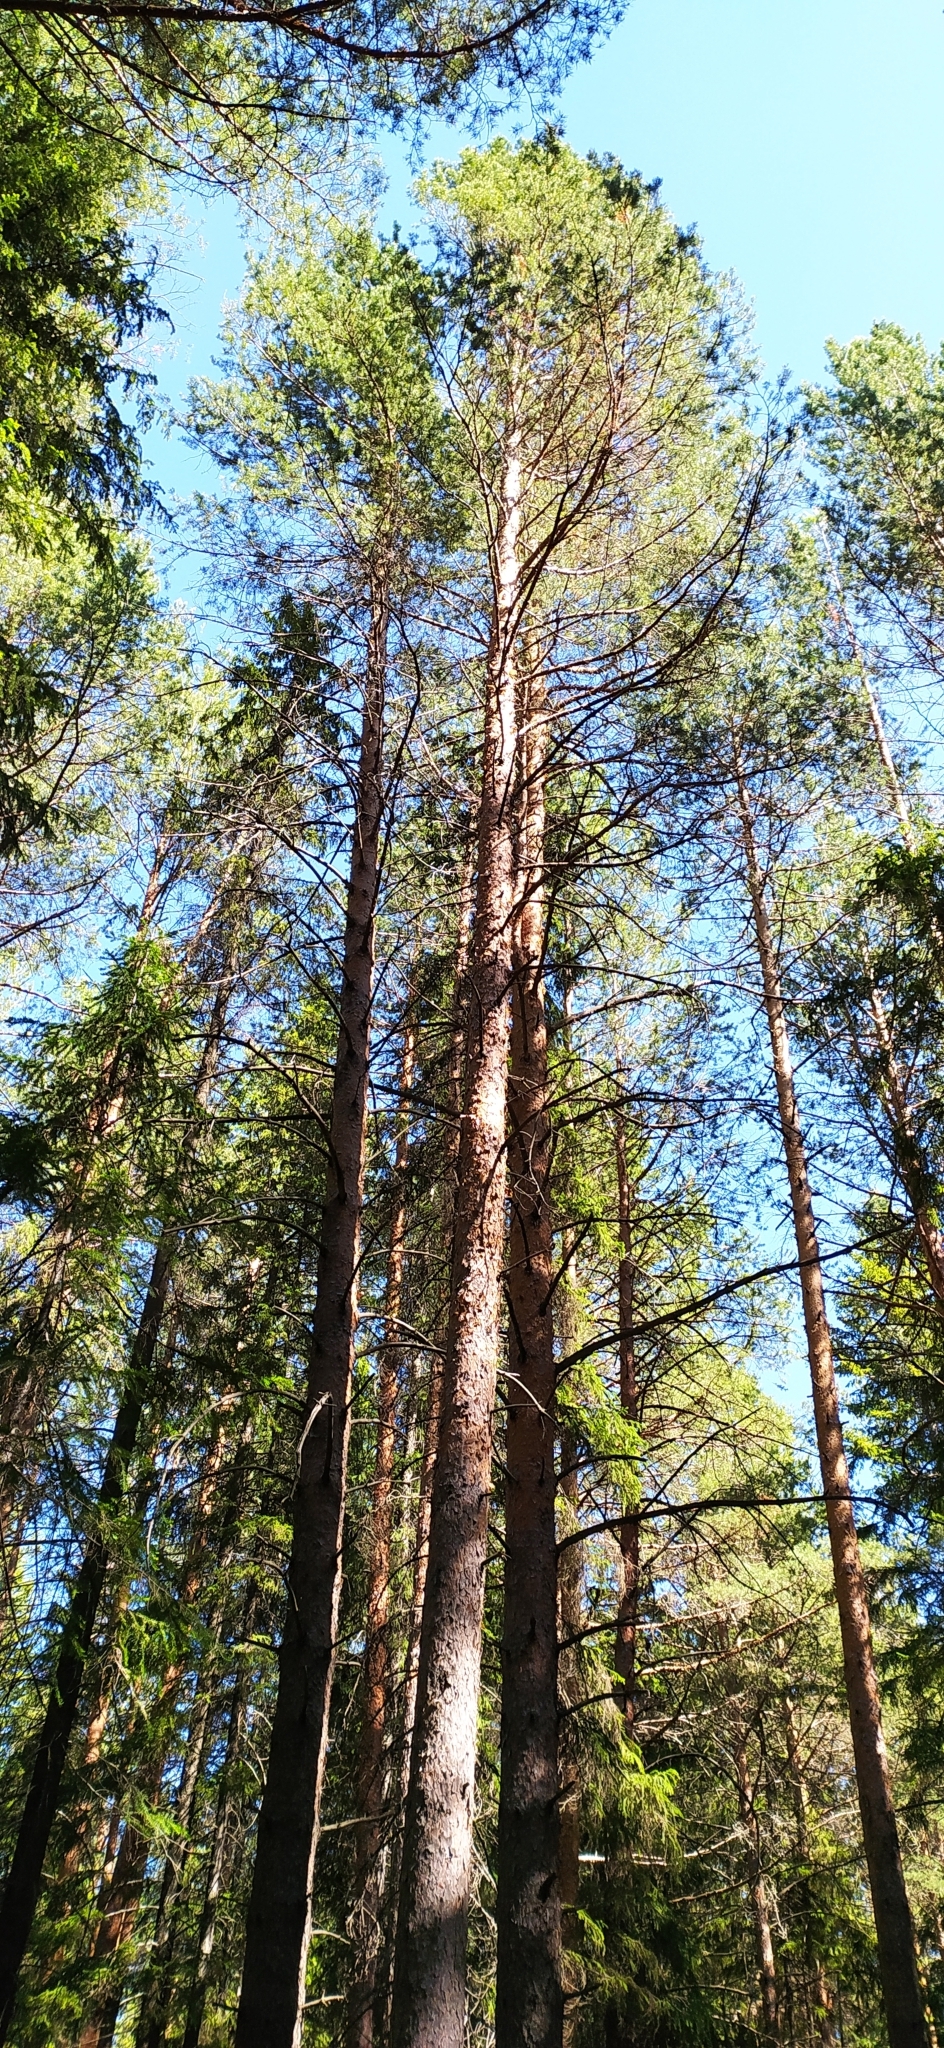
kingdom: Plantae
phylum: Tracheophyta
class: Pinopsida
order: Pinales
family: Pinaceae
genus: Pinus
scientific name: Pinus sylvestris
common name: Scots pine
